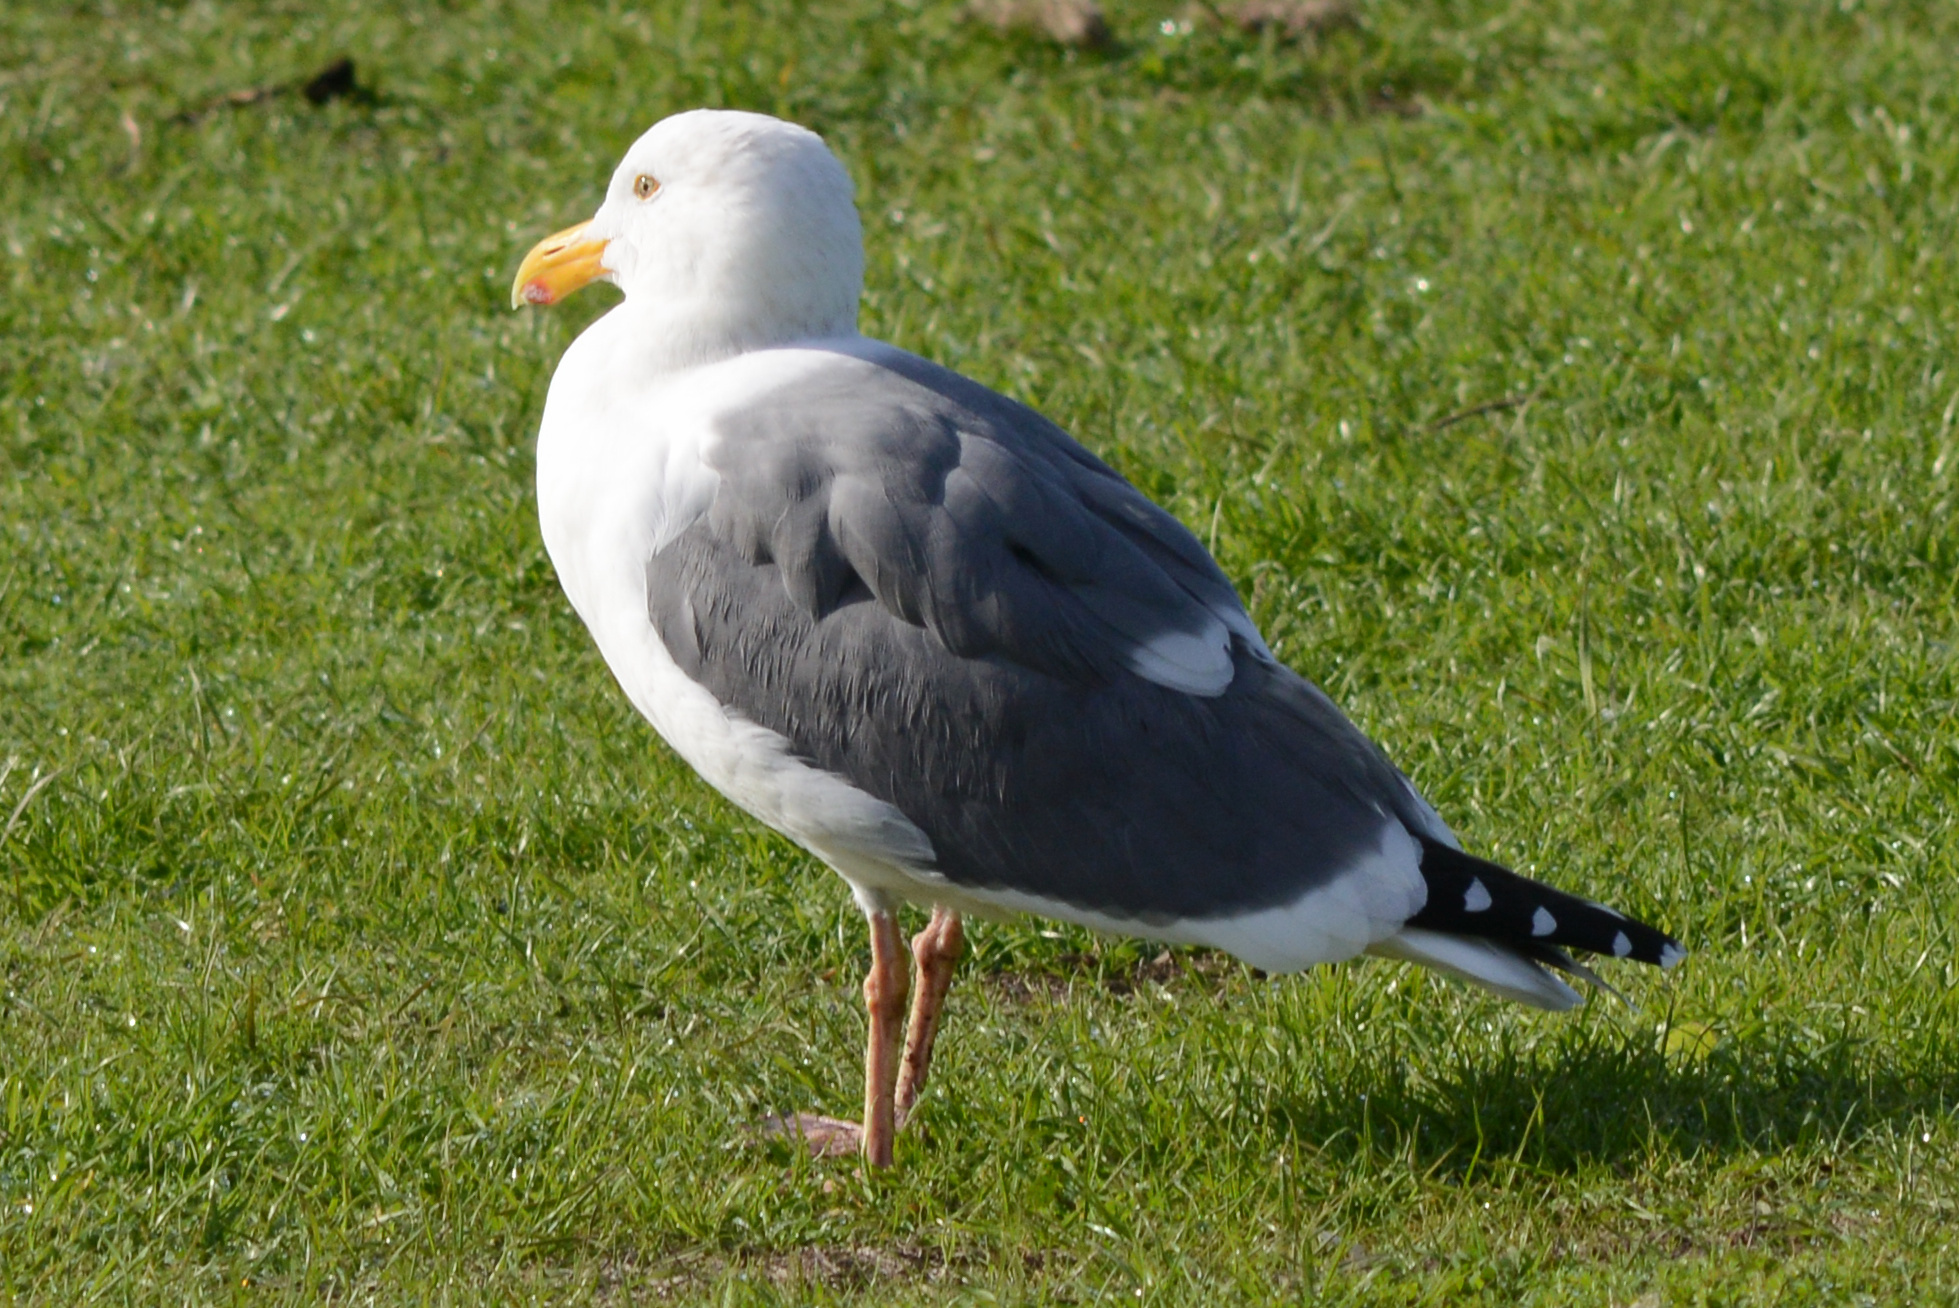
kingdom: Animalia
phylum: Chordata
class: Aves
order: Charadriiformes
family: Laridae
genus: Larus
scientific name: Larus occidentalis
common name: Western gull
